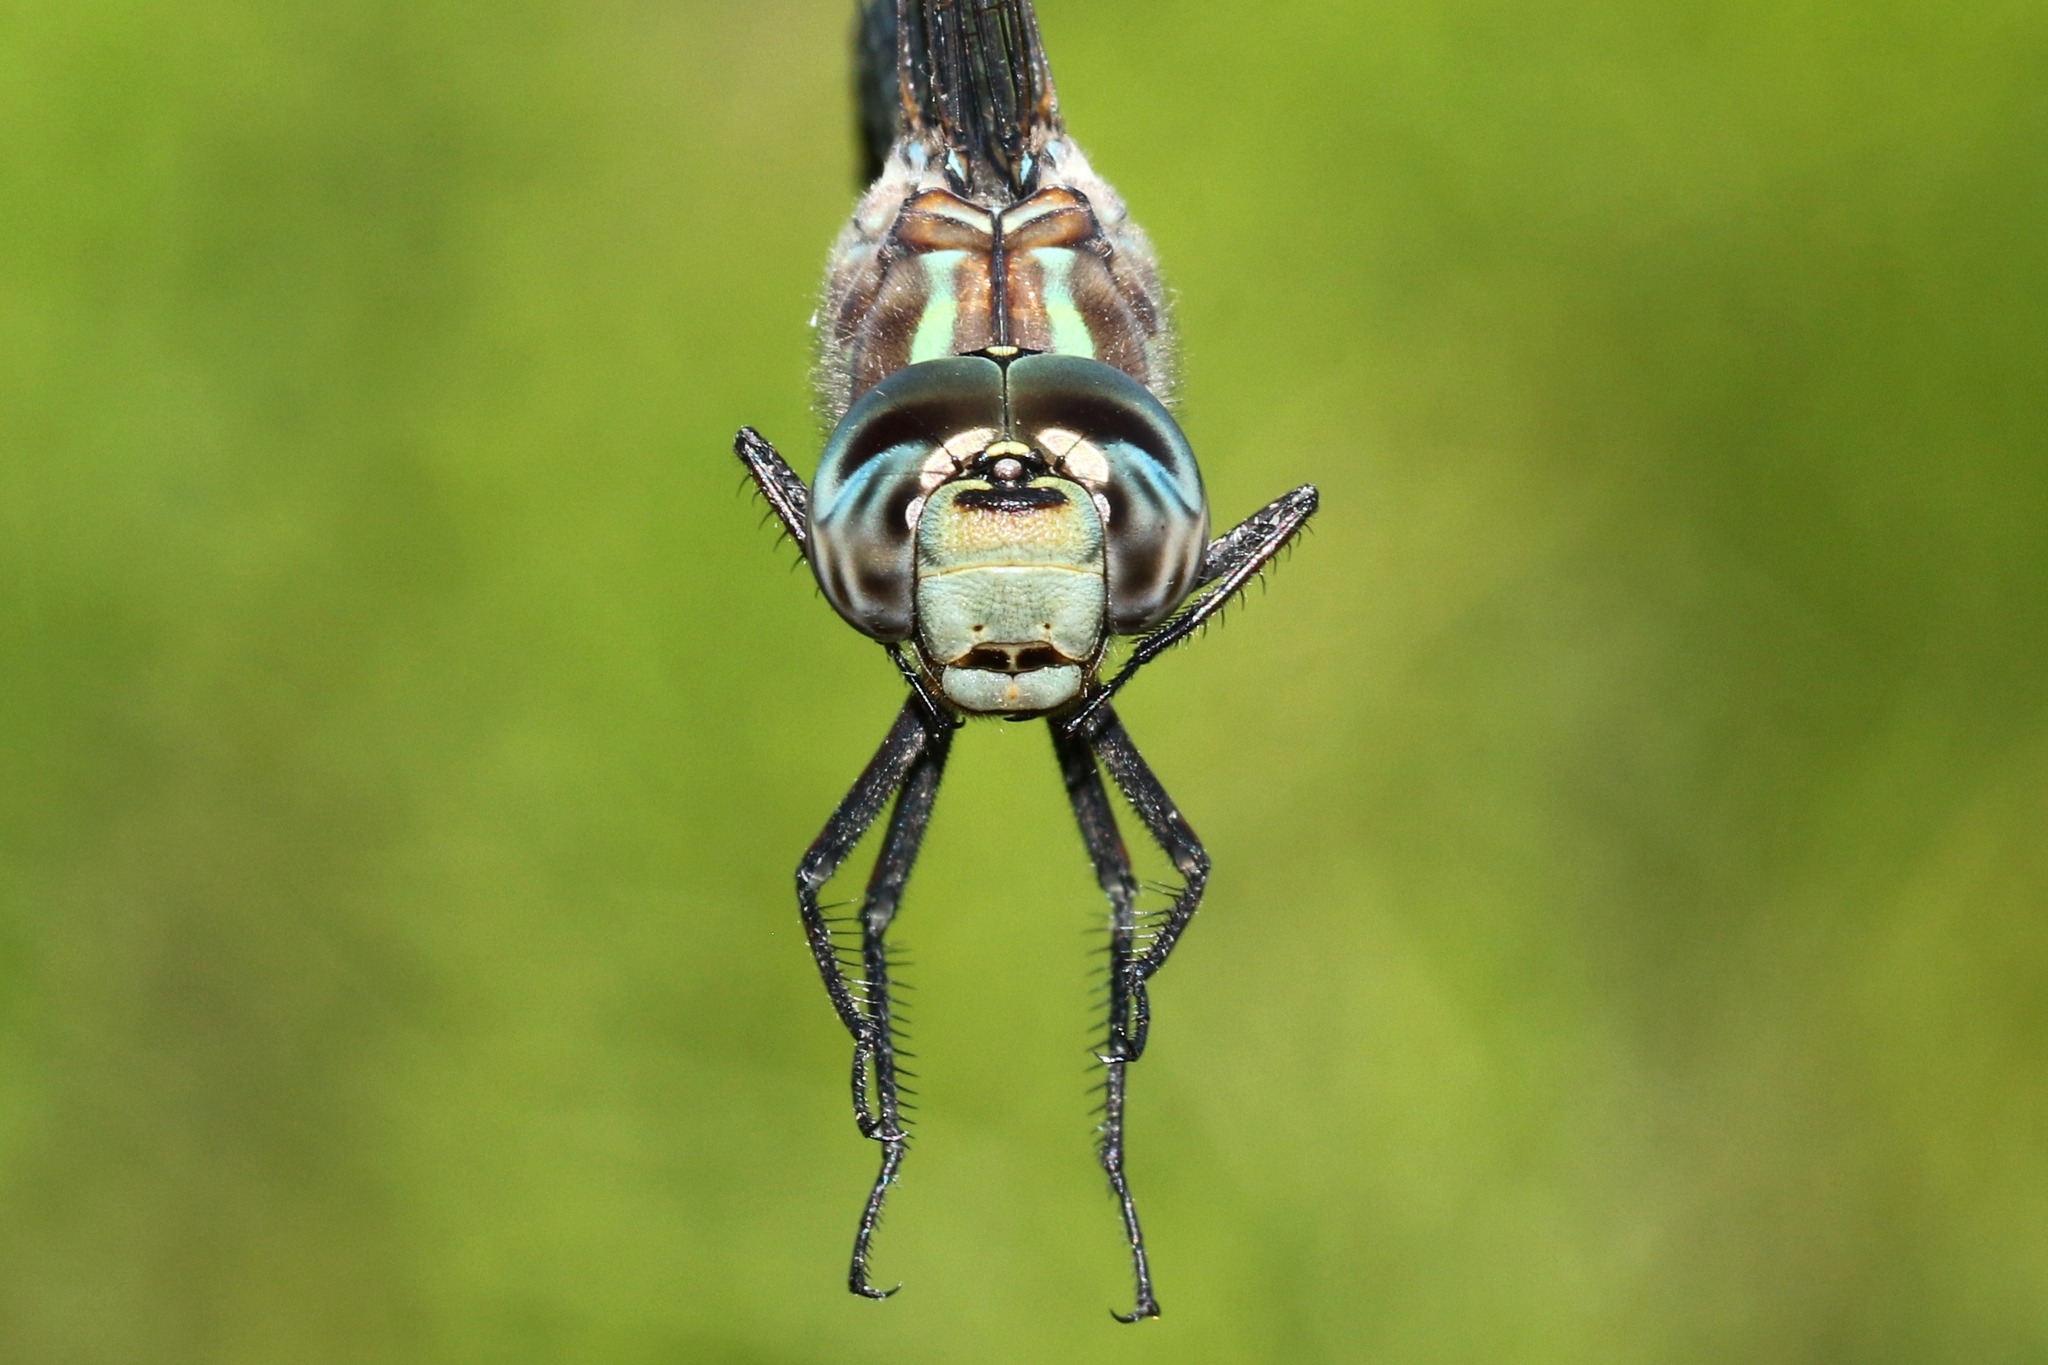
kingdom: Animalia
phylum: Arthropoda
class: Insecta
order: Odonata
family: Aeshnidae
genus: Aeshna
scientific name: Aeshna canadensis
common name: Canada darner
